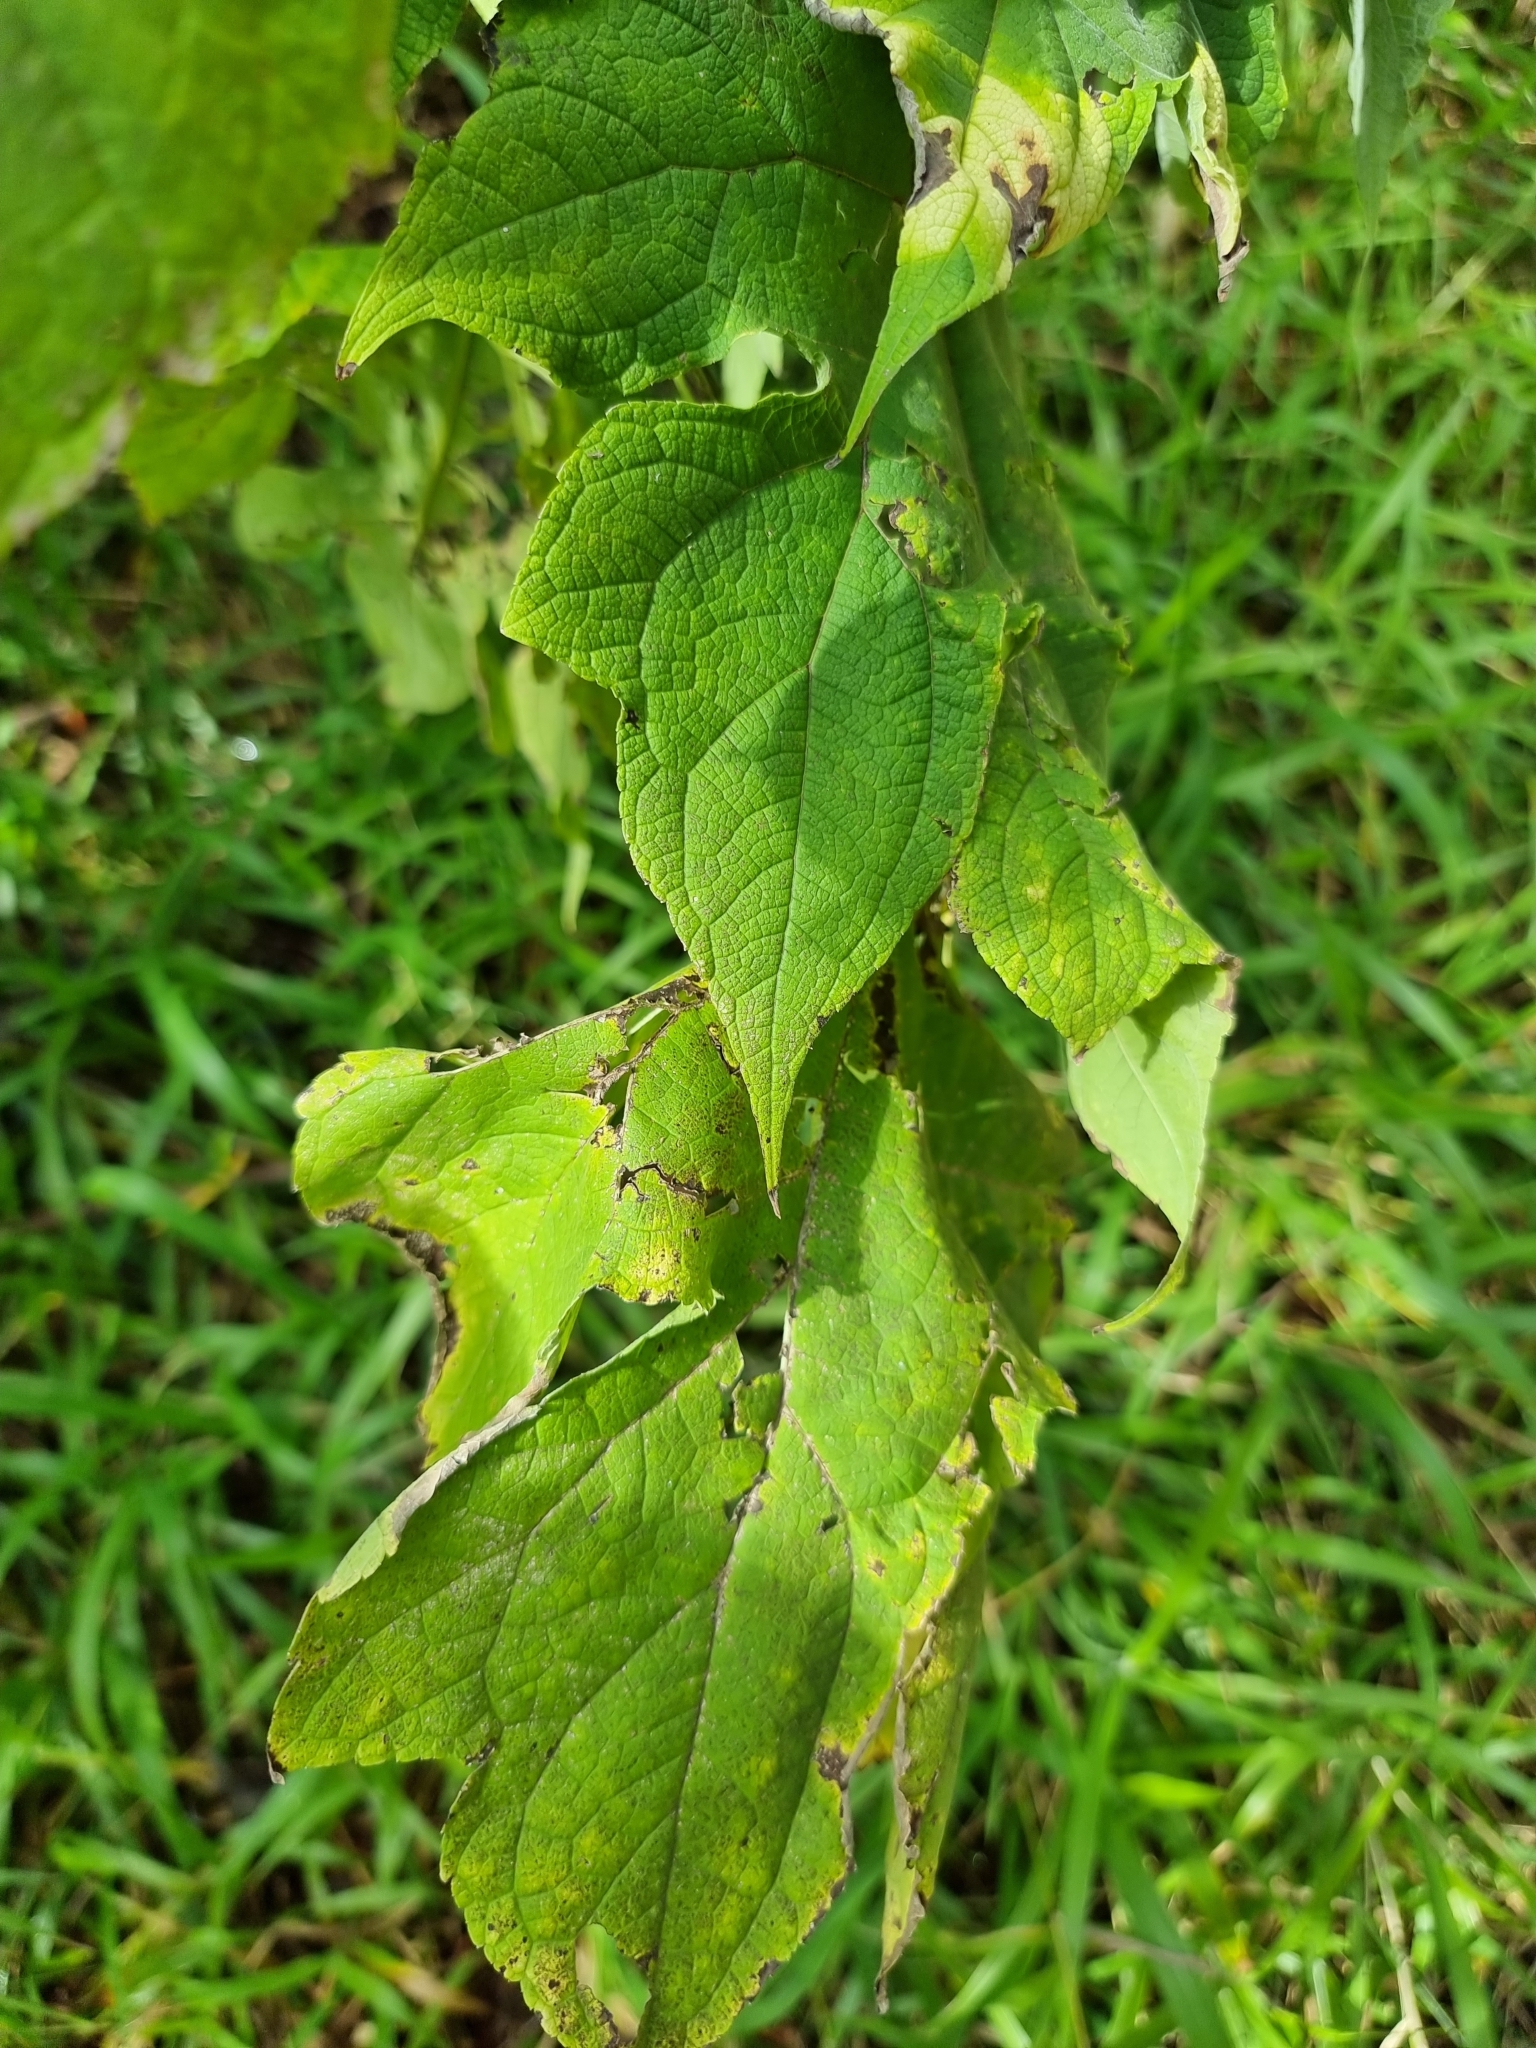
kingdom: Plantae
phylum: Tracheophyta
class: Magnoliopsida
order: Asterales
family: Asteraceae
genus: Montanoa
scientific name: Montanoa hibiscifolia
